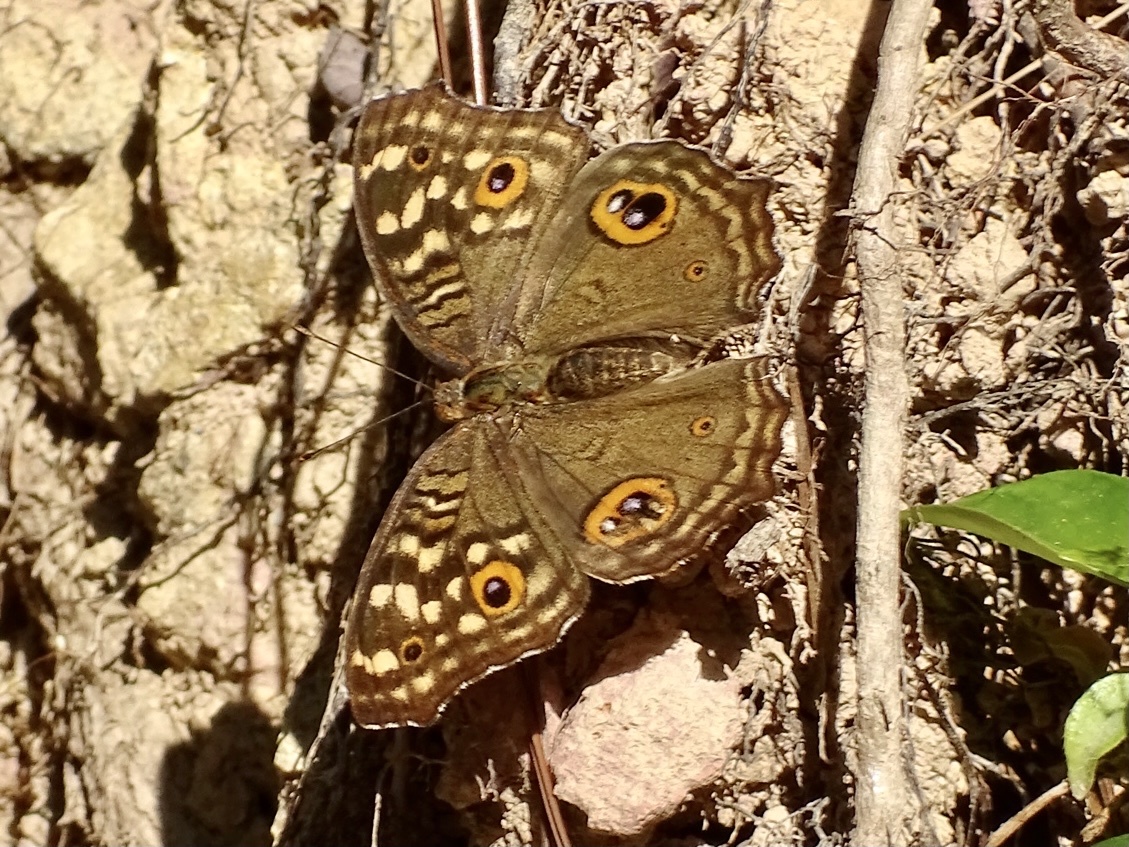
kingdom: Animalia
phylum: Arthropoda
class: Insecta
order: Lepidoptera
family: Nymphalidae
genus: Junonia
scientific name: Junonia lemonias
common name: Lemon pansy
